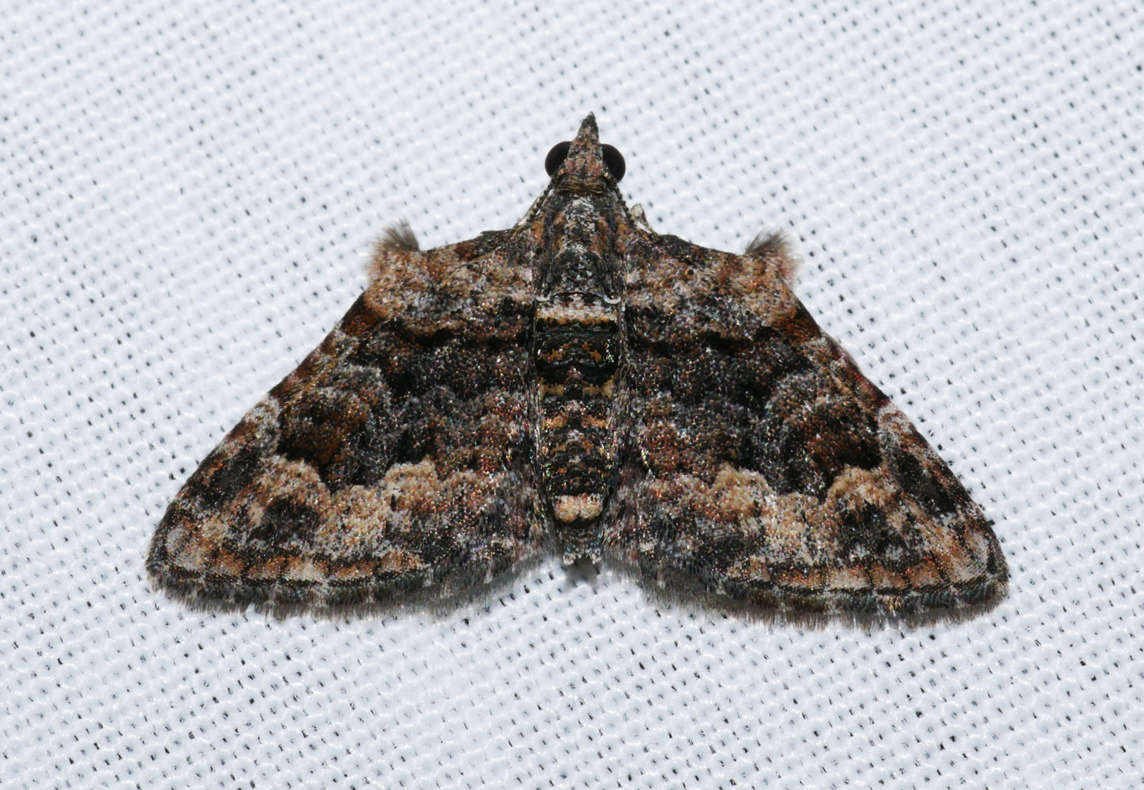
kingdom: Animalia
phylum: Arthropoda
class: Insecta
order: Lepidoptera
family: Geometridae
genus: Phrissogonus
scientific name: Phrissogonus laticostata
